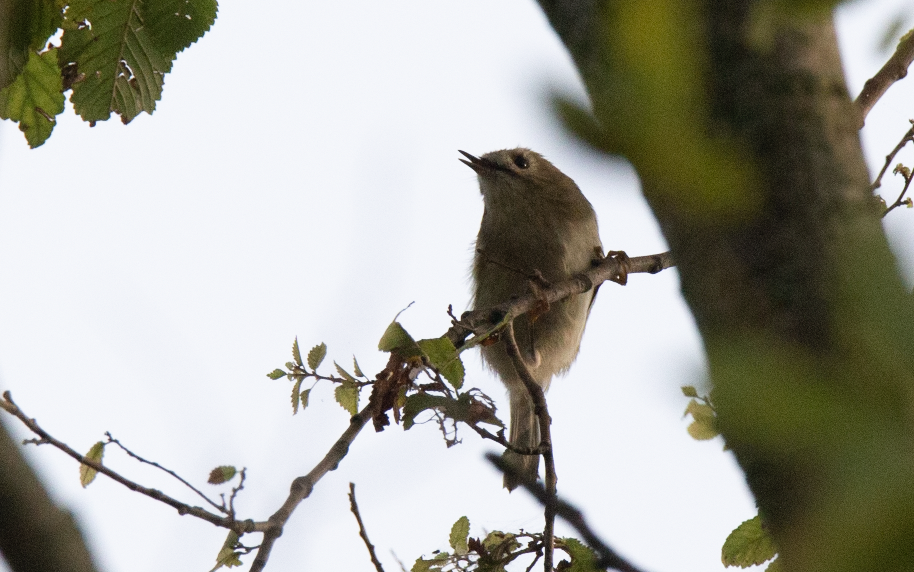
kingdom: Animalia
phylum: Chordata
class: Aves
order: Passeriformes
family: Regulidae
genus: Regulus
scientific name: Regulus regulus
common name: Goldcrest
